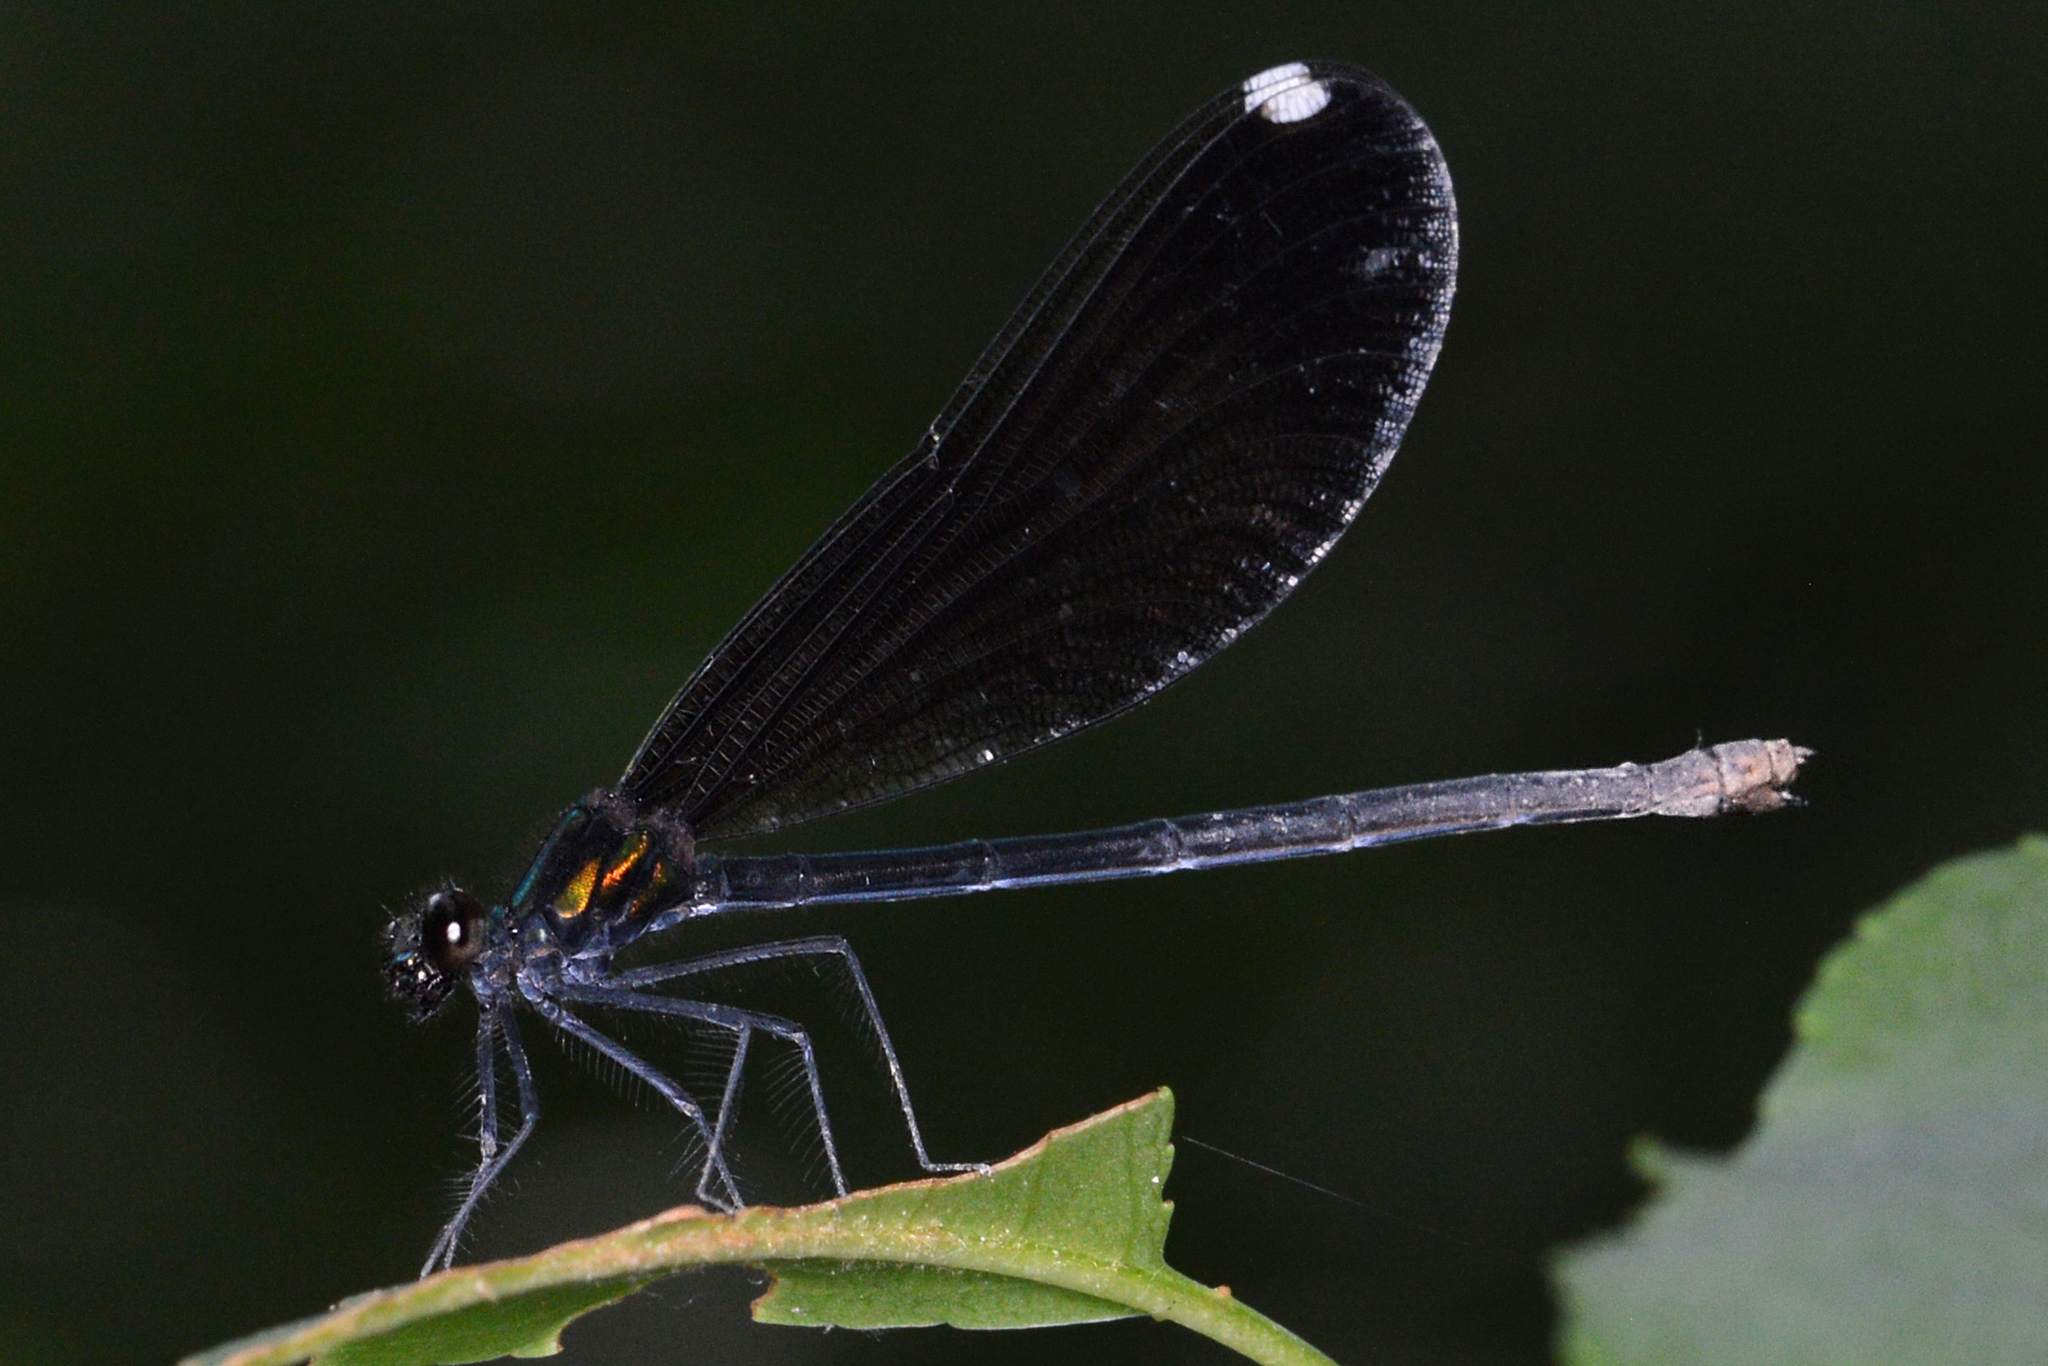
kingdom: Animalia
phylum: Arthropoda
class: Insecta
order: Odonata
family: Calopterygidae
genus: Calopteryx
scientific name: Calopteryx maculata
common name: Ebony jewelwing
